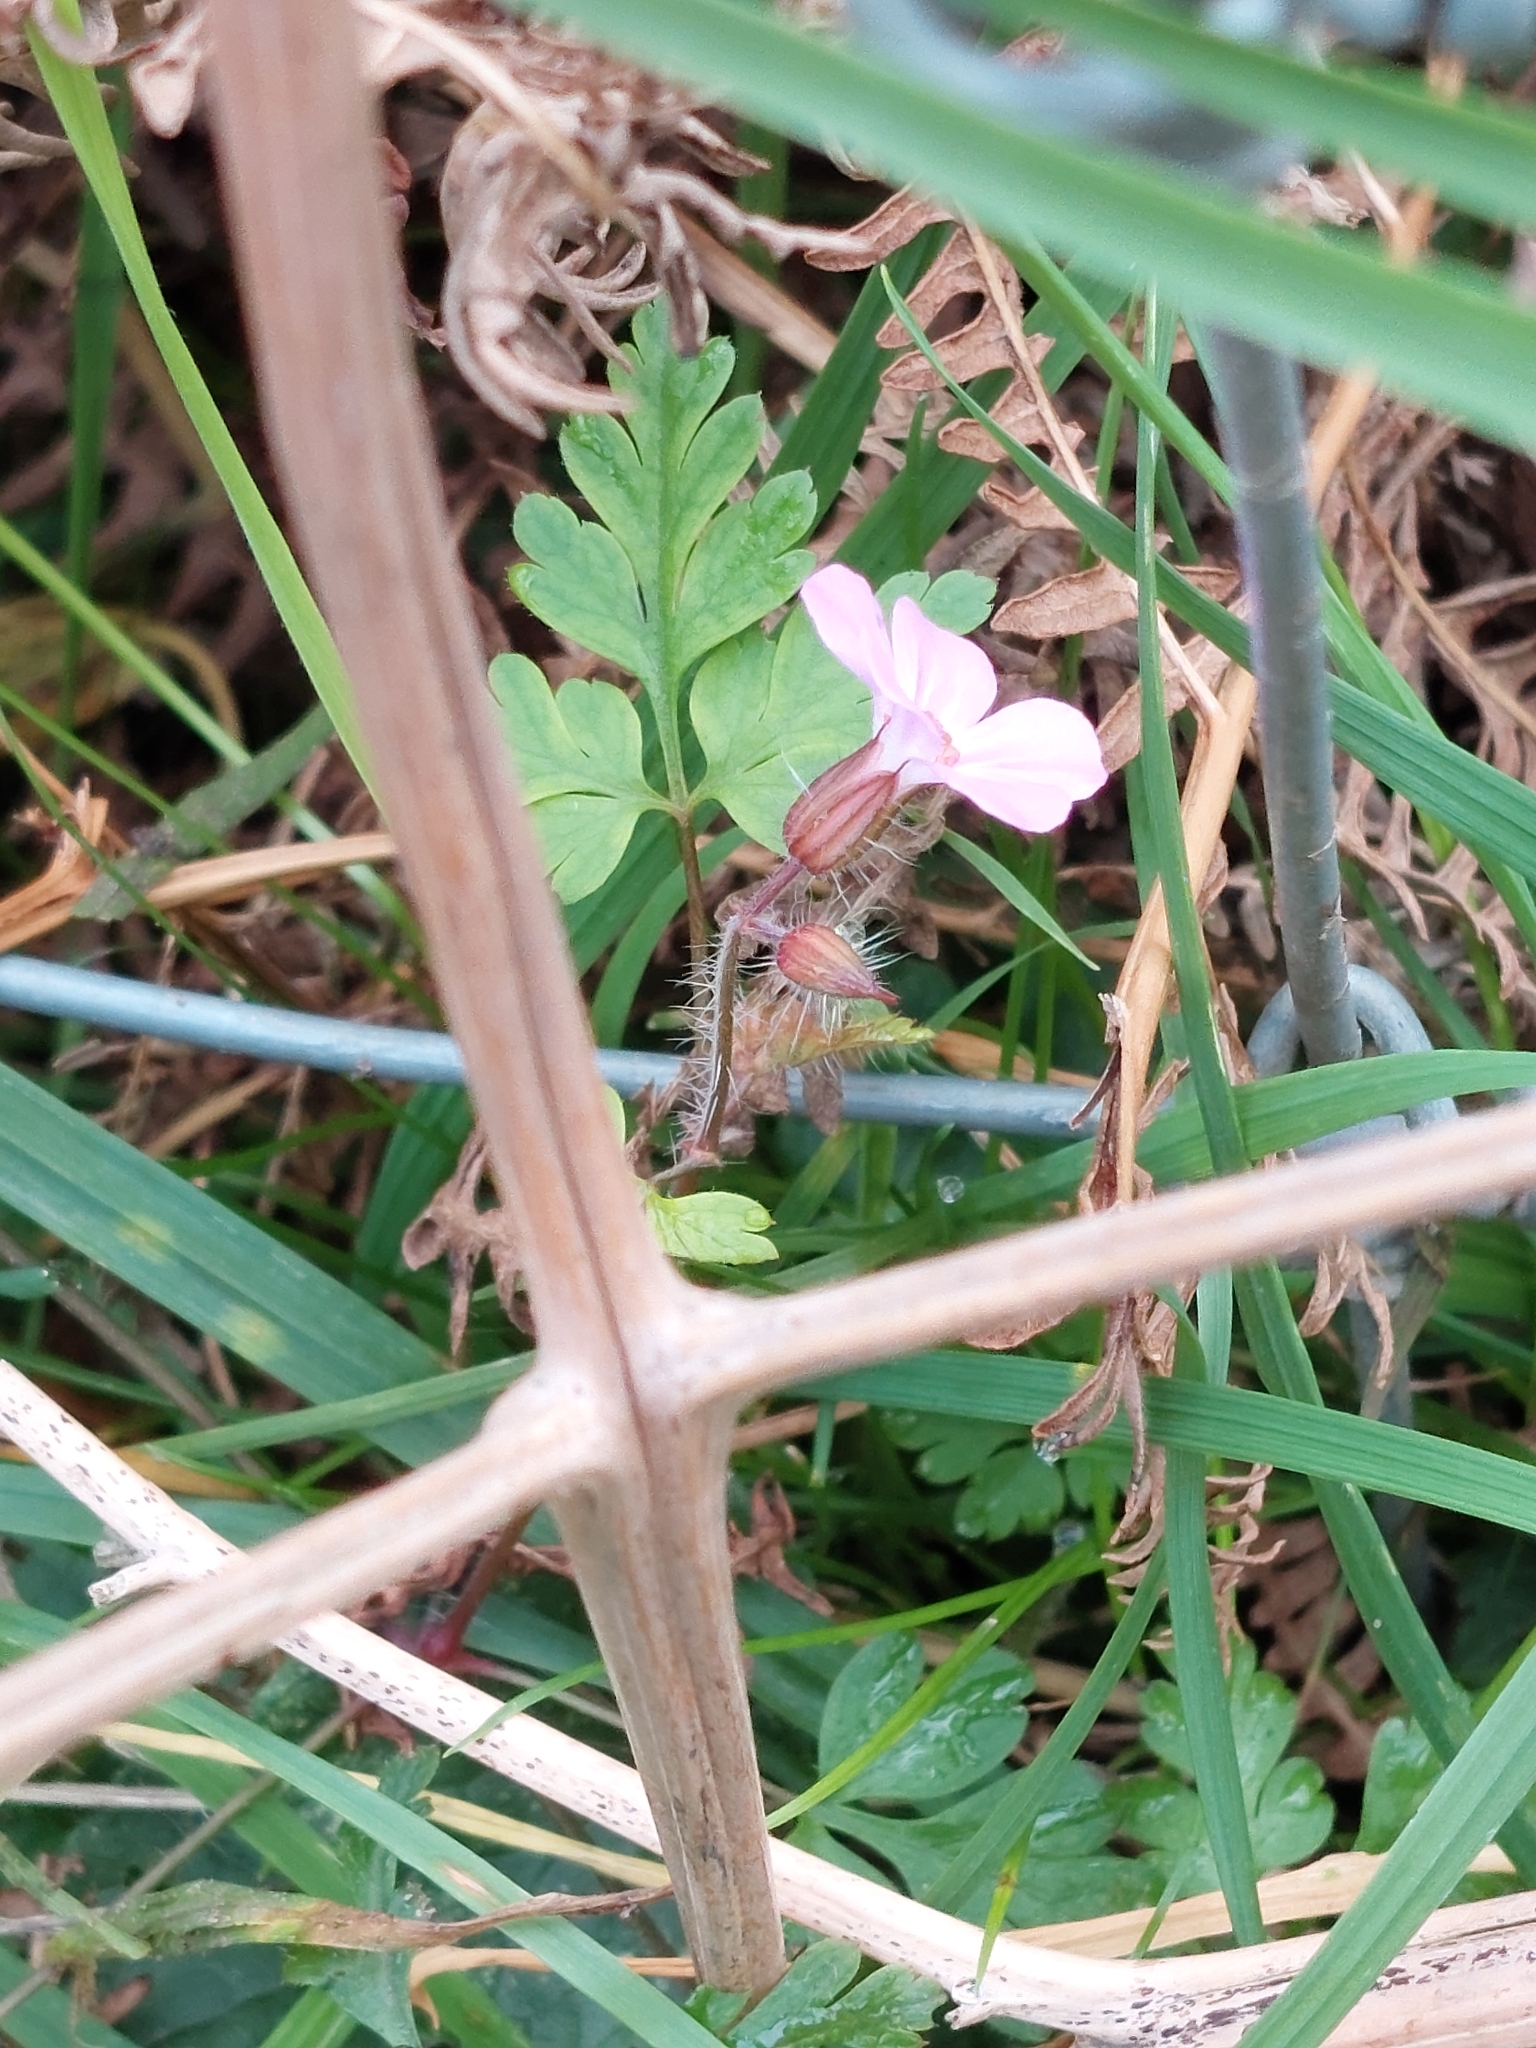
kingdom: Plantae
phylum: Tracheophyta
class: Magnoliopsida
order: Geraniales
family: Geraniaceae
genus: Geranium
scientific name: Geranium robertianum
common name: Herb-robert
